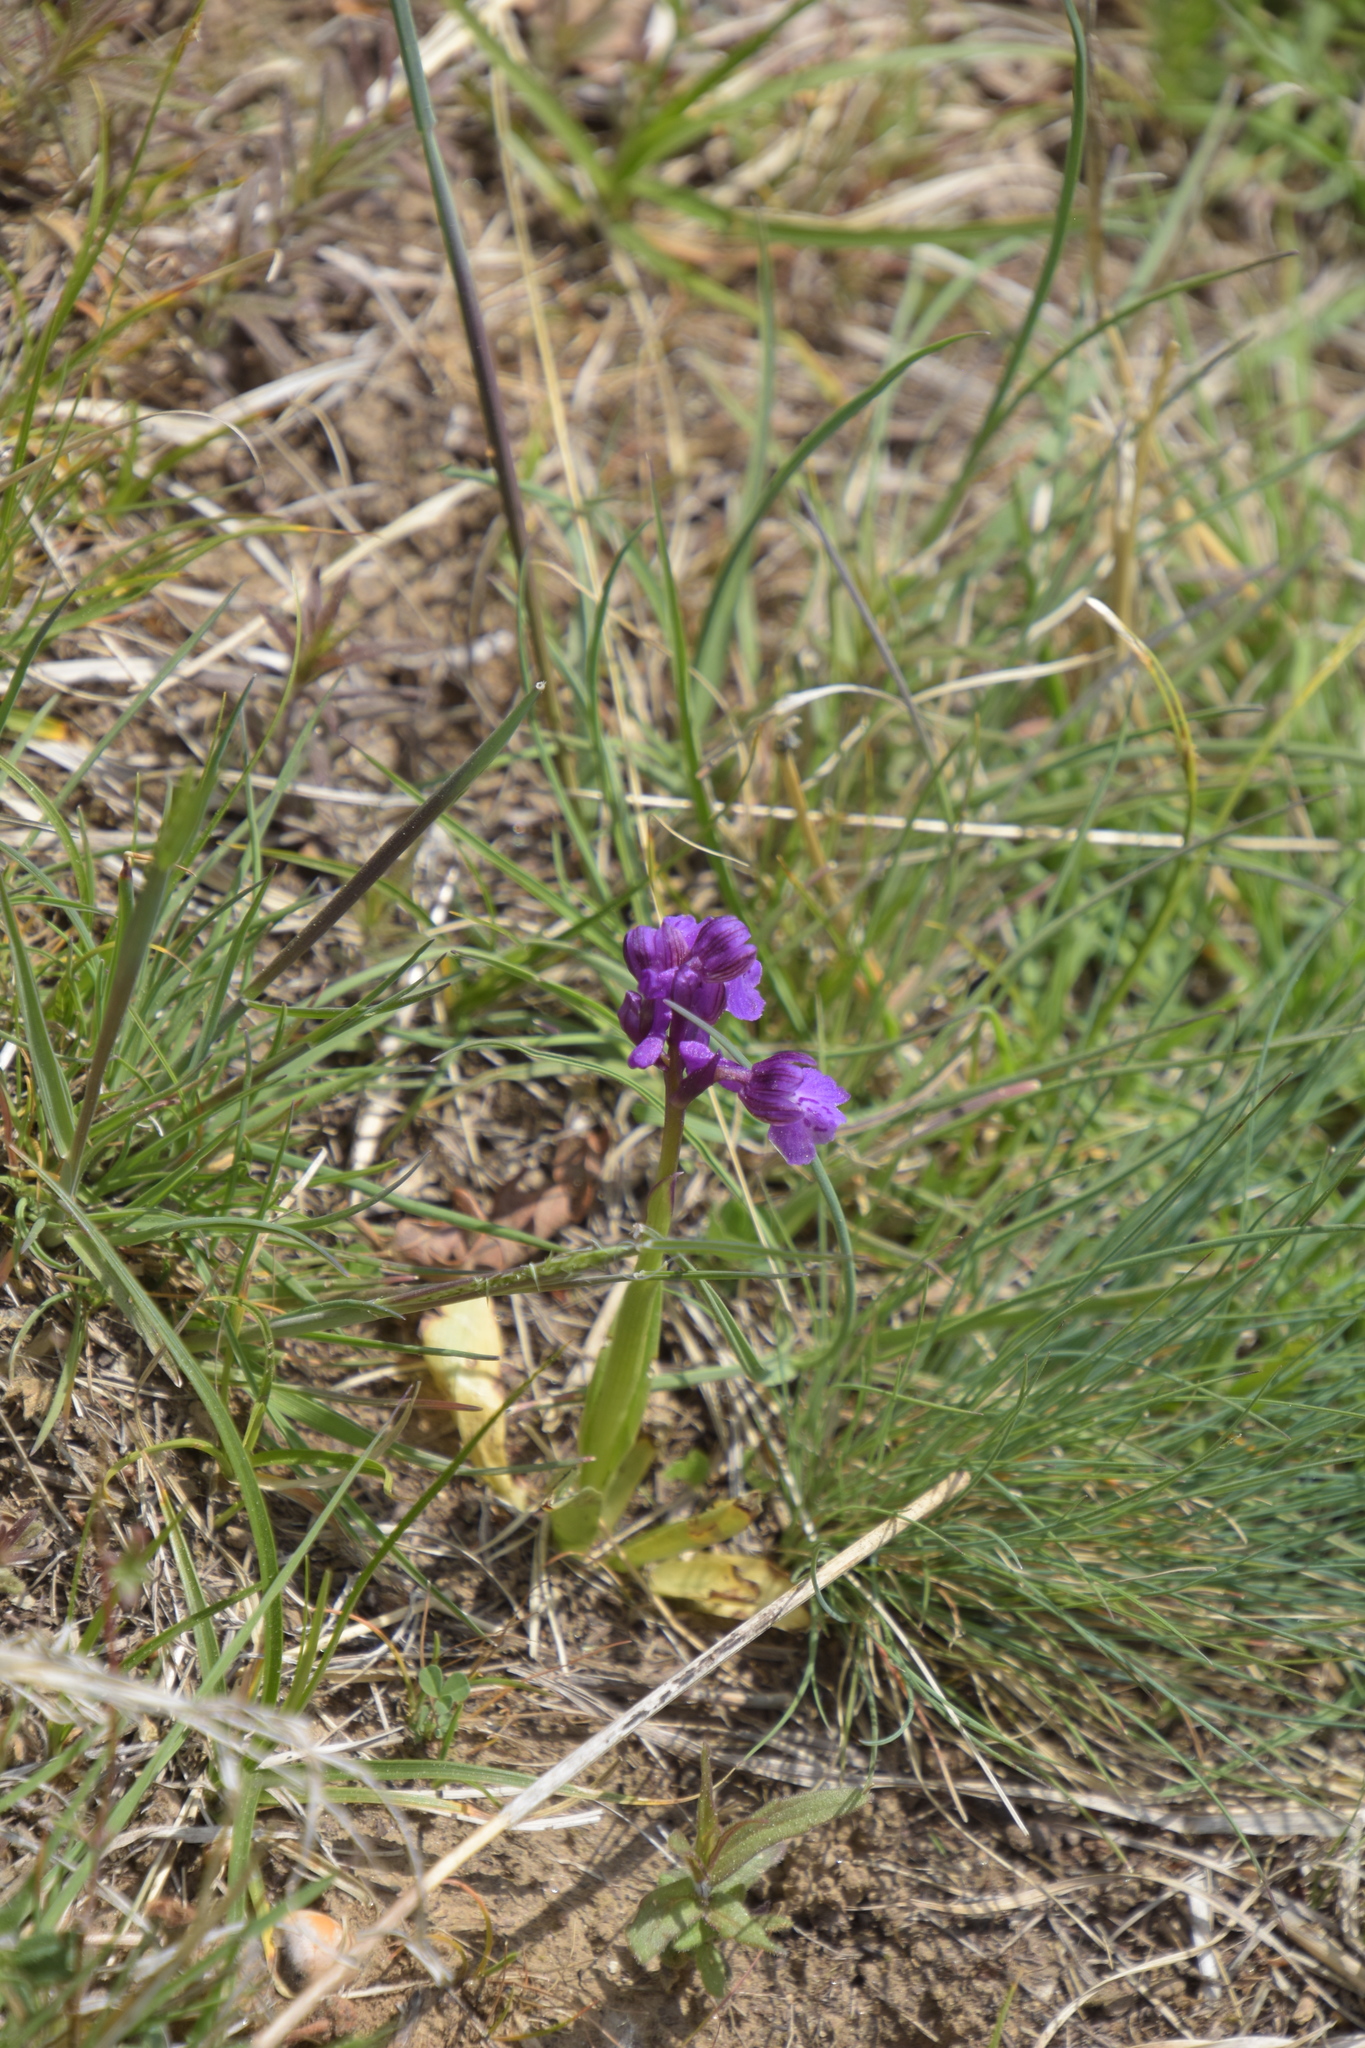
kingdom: Plantae
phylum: Tracheophyta
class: Liliopsida
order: Asparagales
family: Orchidaceae
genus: Anacamptis
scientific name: Anacamptis morio
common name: Green-winged orchid
